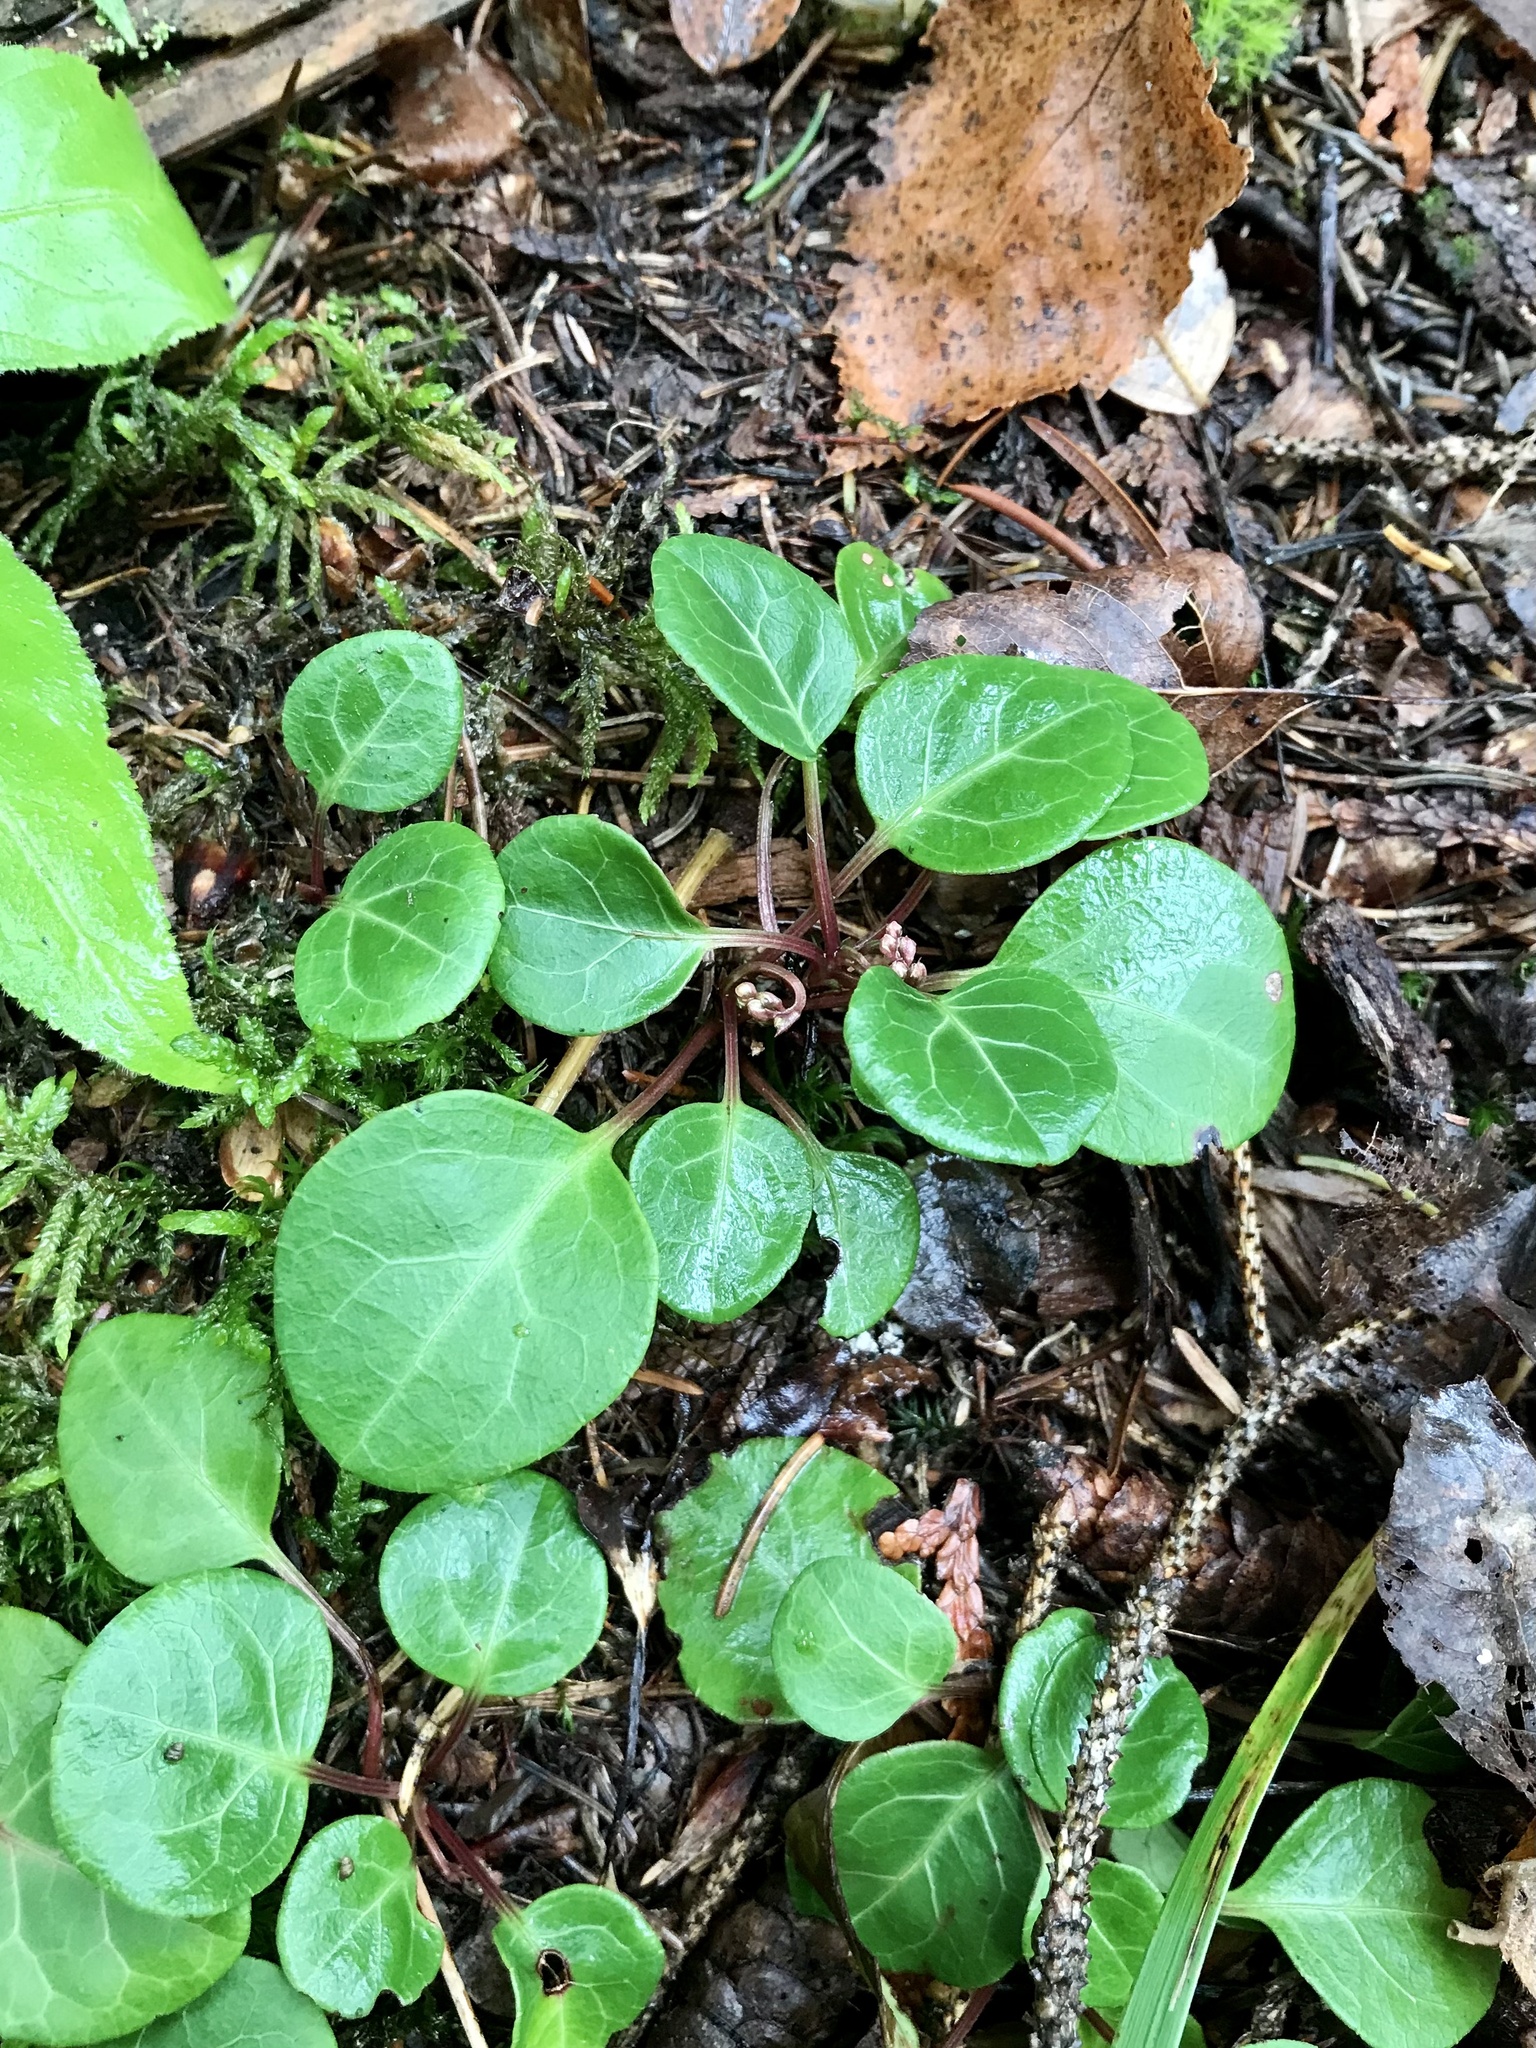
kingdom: Plantae
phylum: Tracheophyta
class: Magnoliopsida
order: Ericales
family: Ericaceae
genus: Pyrola
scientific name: Pyrola chlorantha
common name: Green wintergreen
